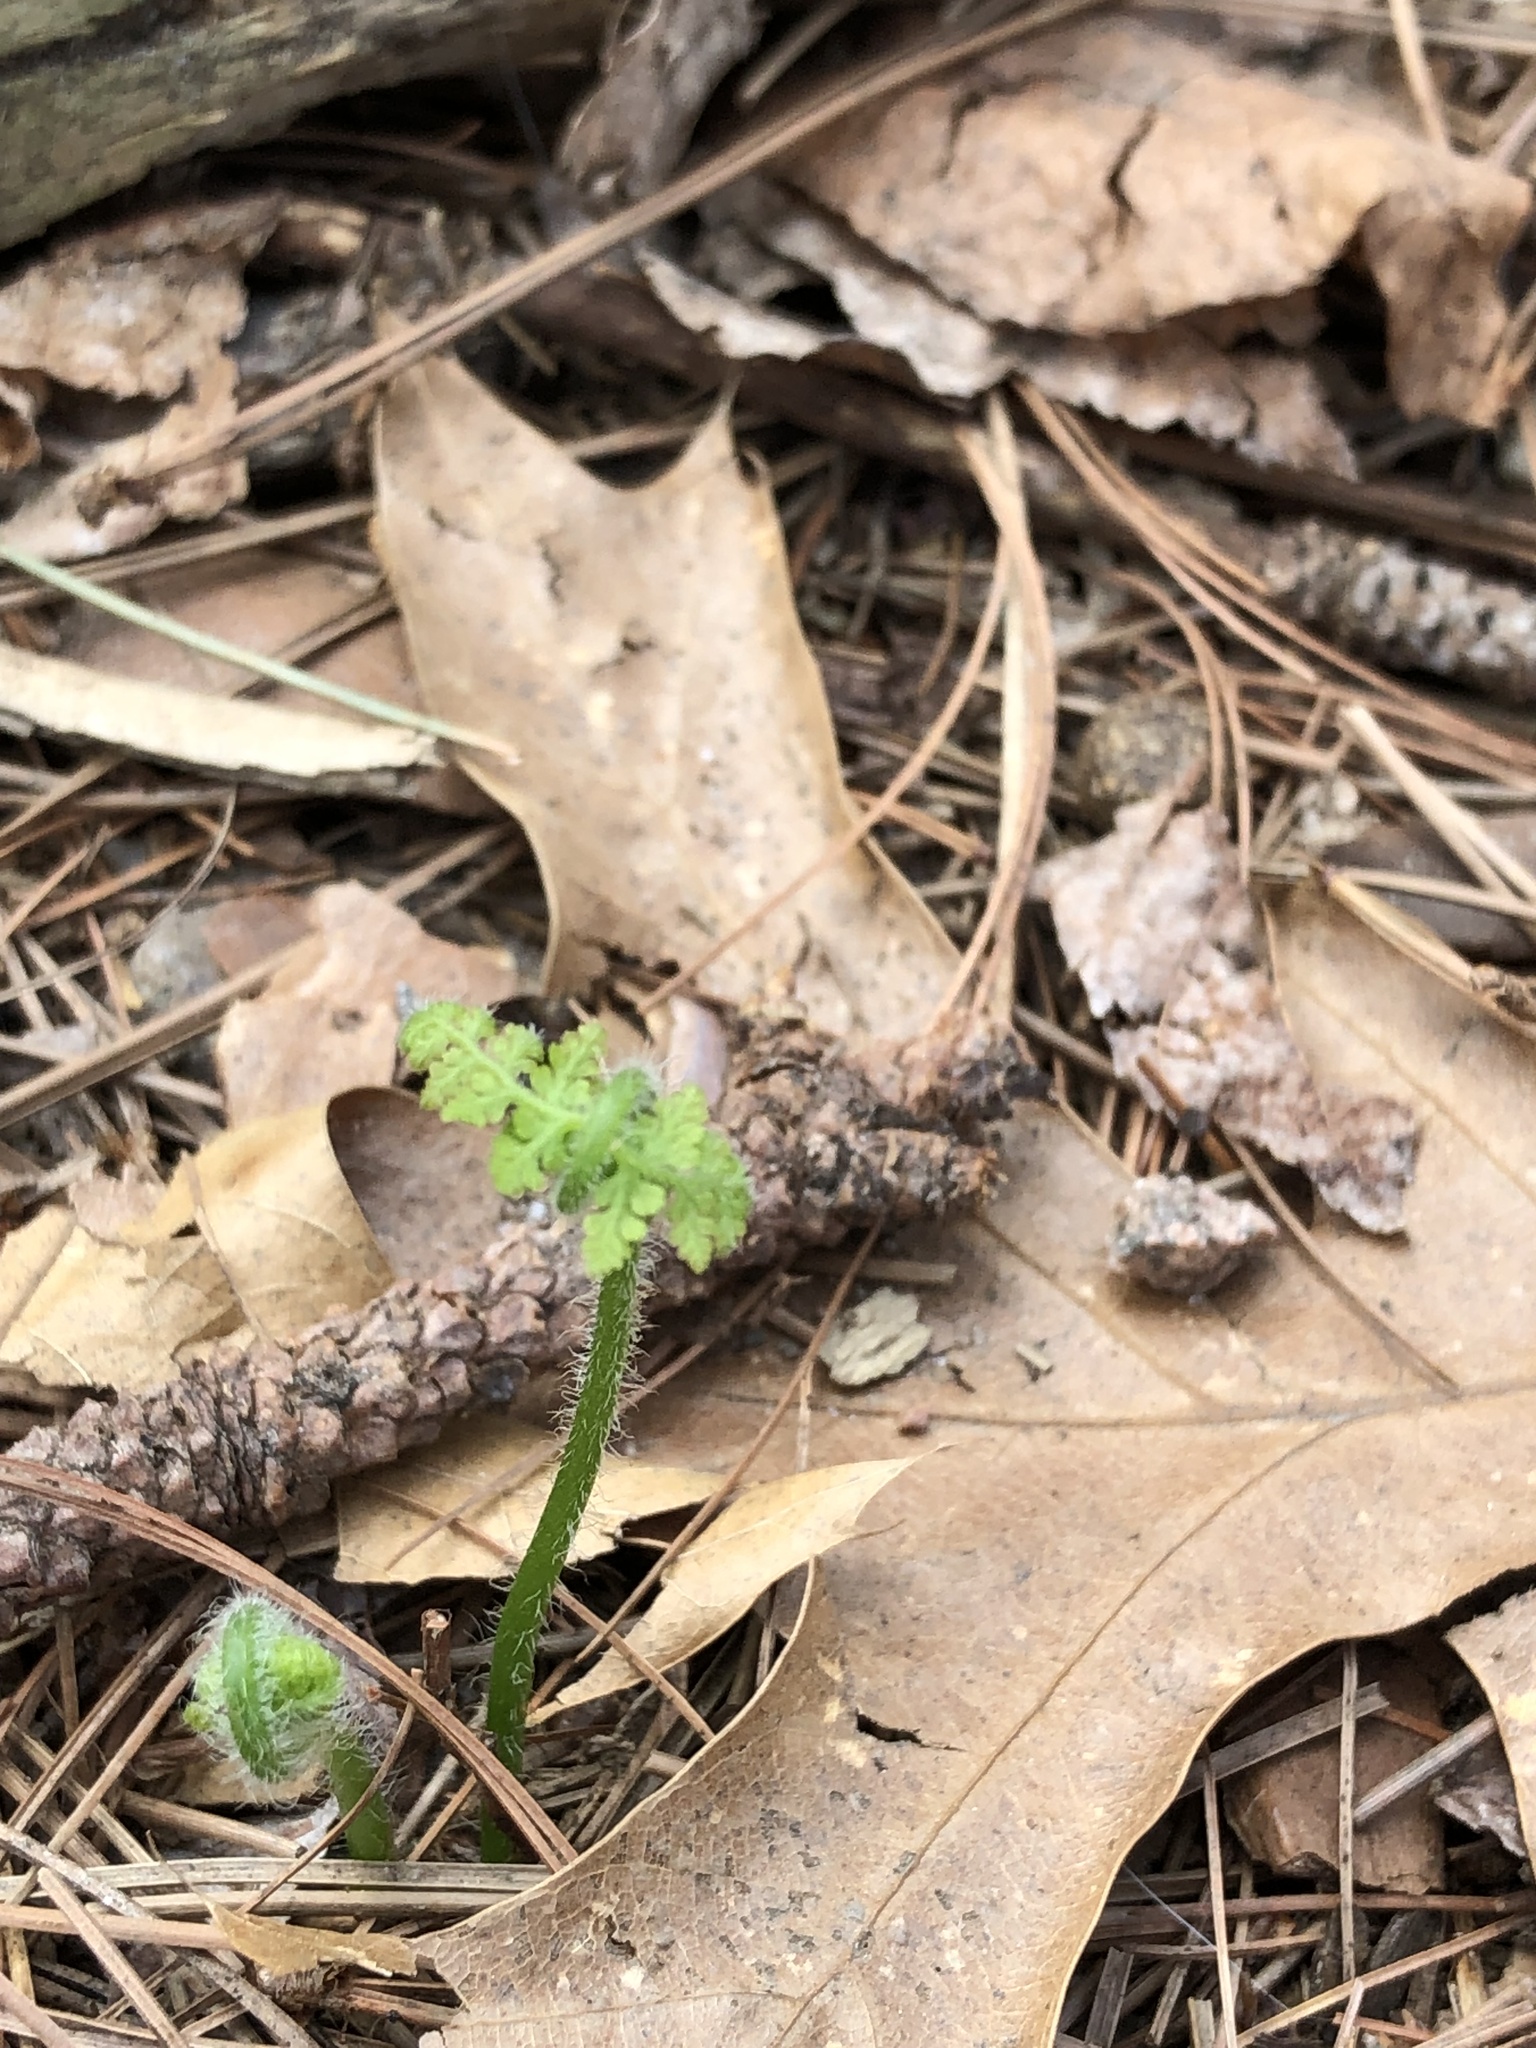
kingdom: Plantae
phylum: Tracheophyta
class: Polypodiopsida
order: Polypodiales
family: Dennstaedtiaceae
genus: Sitobolium
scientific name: Sitobolium punctilobum
